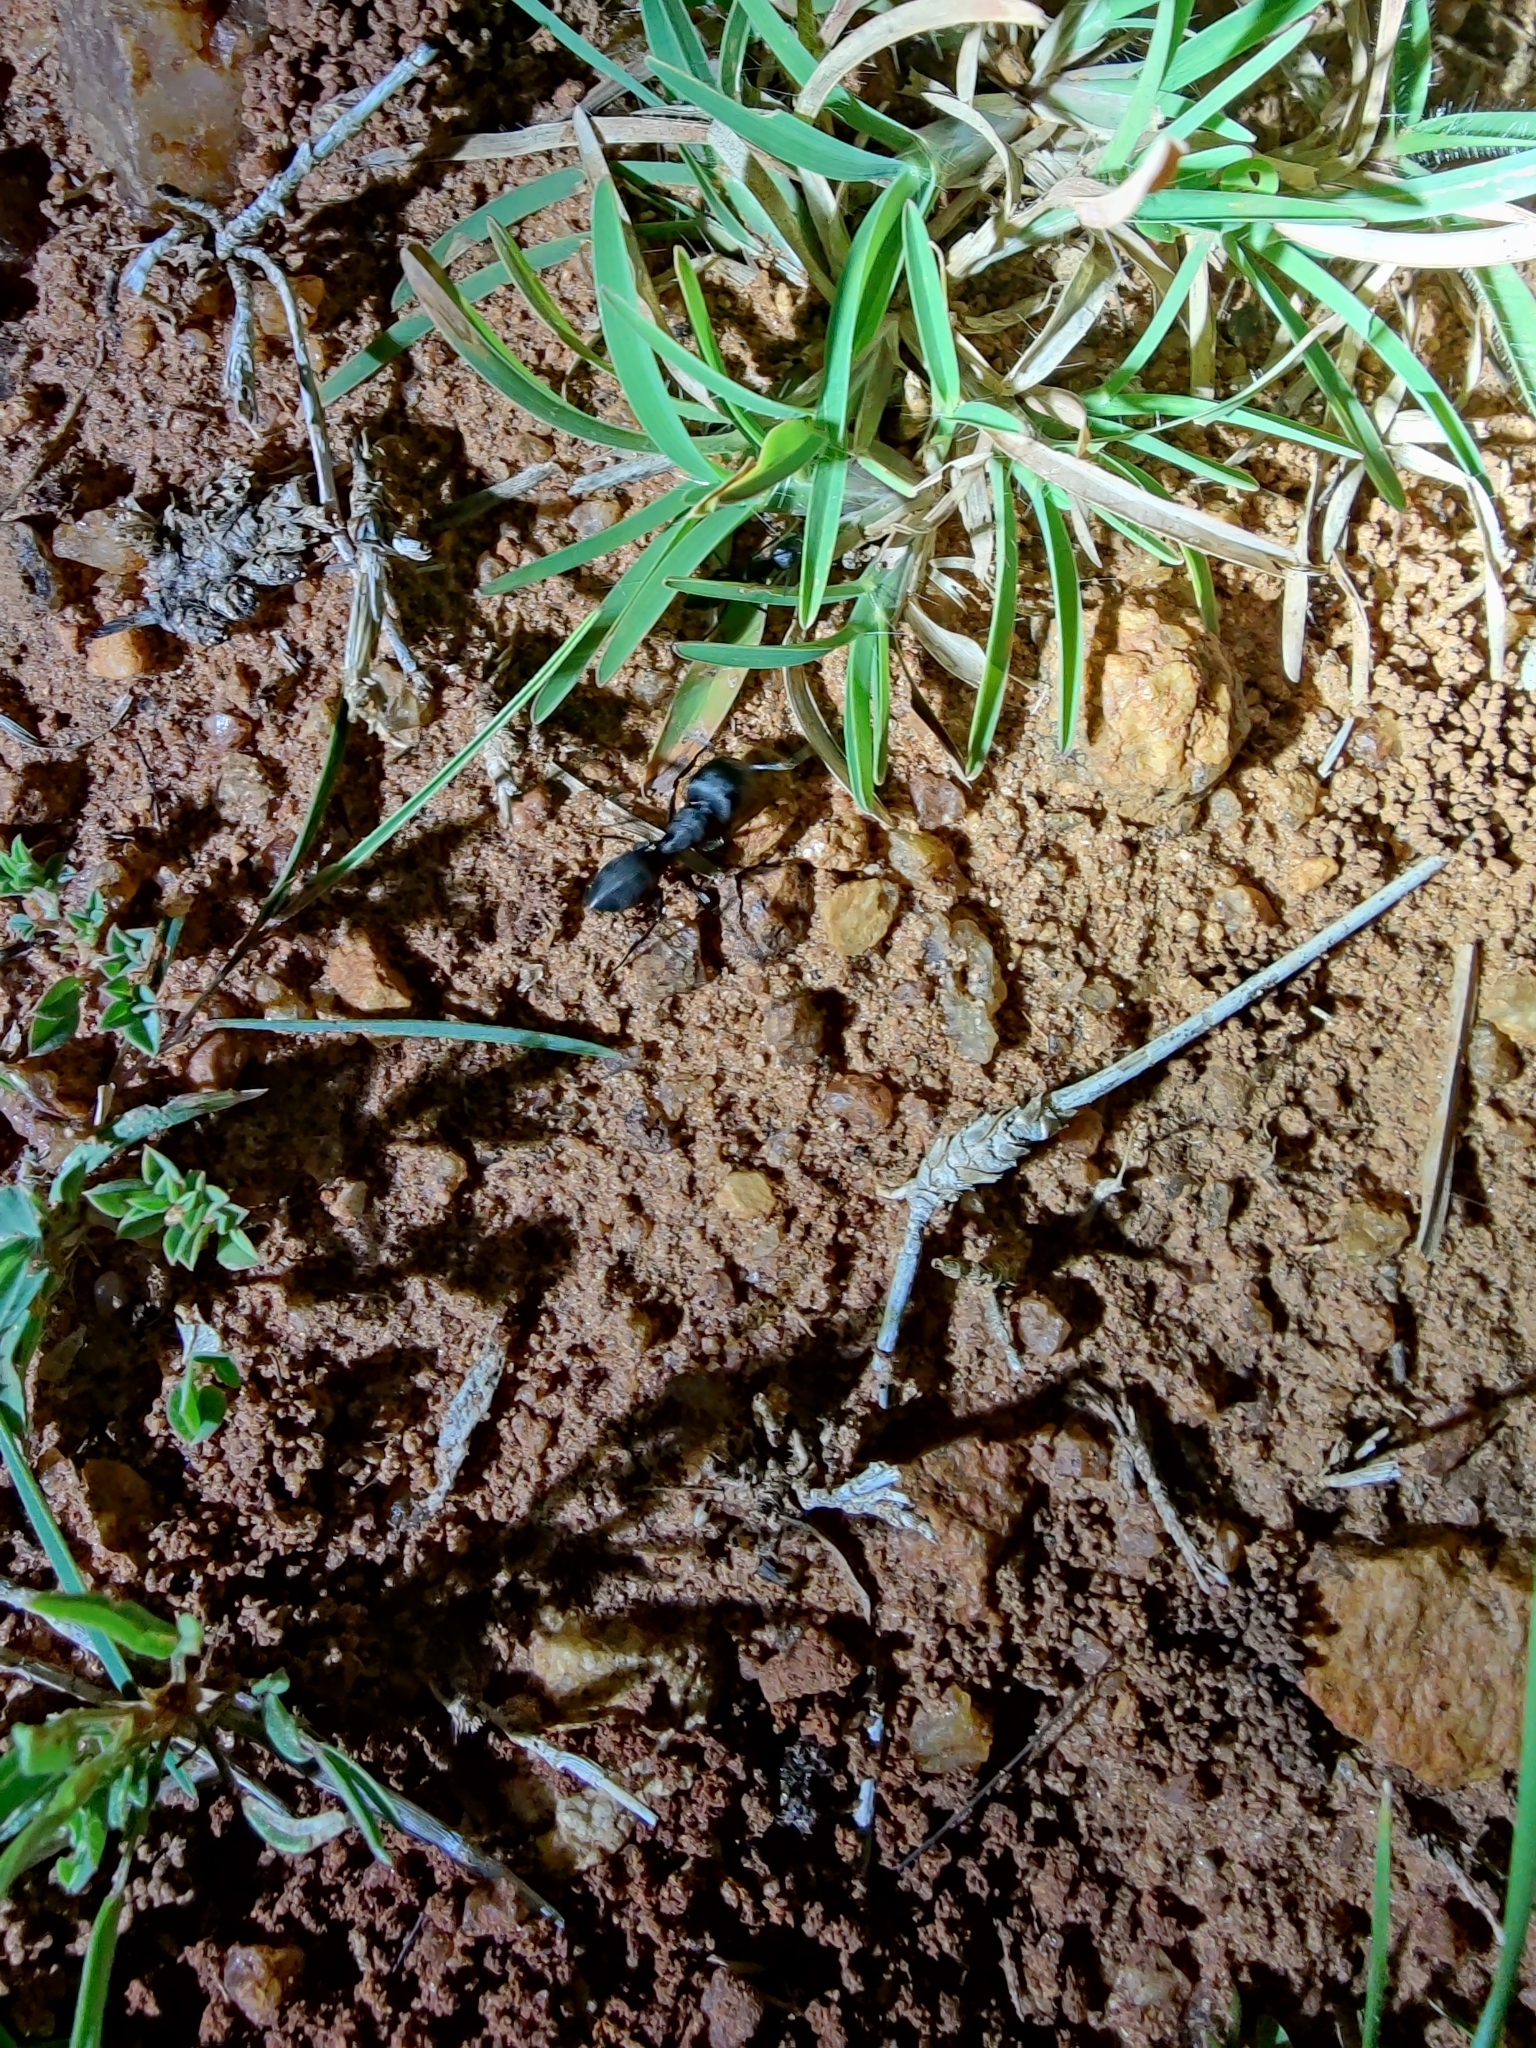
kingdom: Animalia
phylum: Arthropoda
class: Insecta
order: Hymenoptera
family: Formicidae
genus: Camponotus
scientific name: Camponotus compressus
